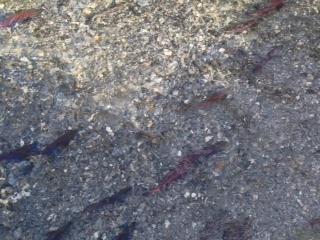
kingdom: Animalia
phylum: Chordata
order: Salmoniformes
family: Salmonidae
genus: Oncorhynchus
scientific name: Oncorhynchus nerka
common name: Sockeye salmon
